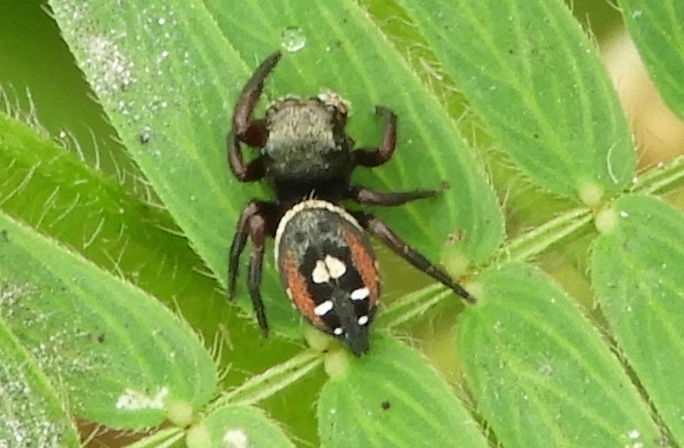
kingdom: Animalia
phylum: Arthropoda
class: Arachnida
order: Araneae
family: Salticidae
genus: Phidippus
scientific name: Phidippus californicus
